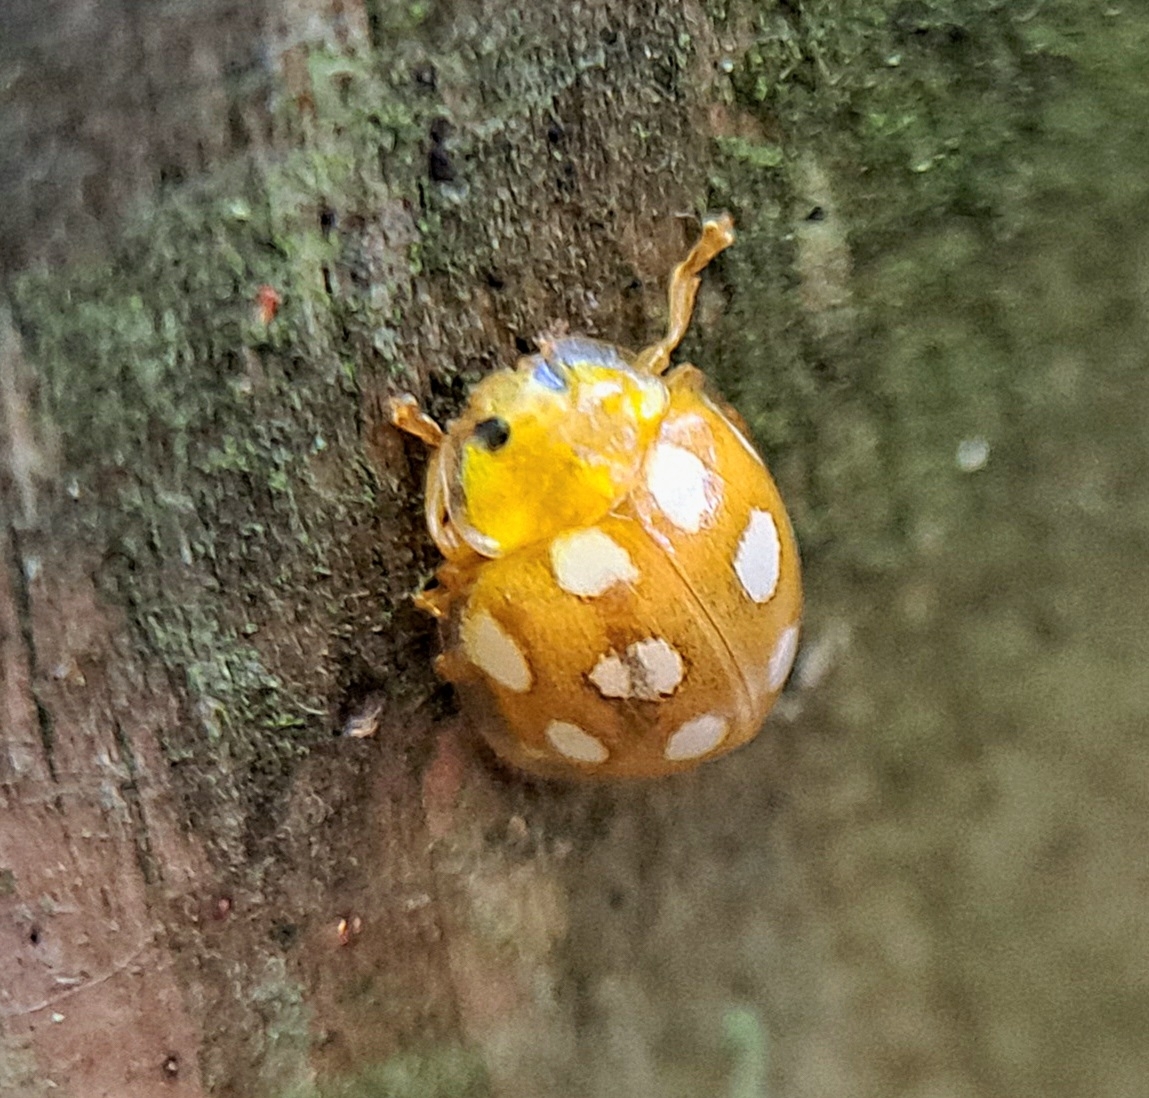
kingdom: Animalia
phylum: Arthropoda
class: Insecta
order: Coleoptera
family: Coccinellidae
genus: Halyzia
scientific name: Halyzia sedecimguttata
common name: Orange ladybird
